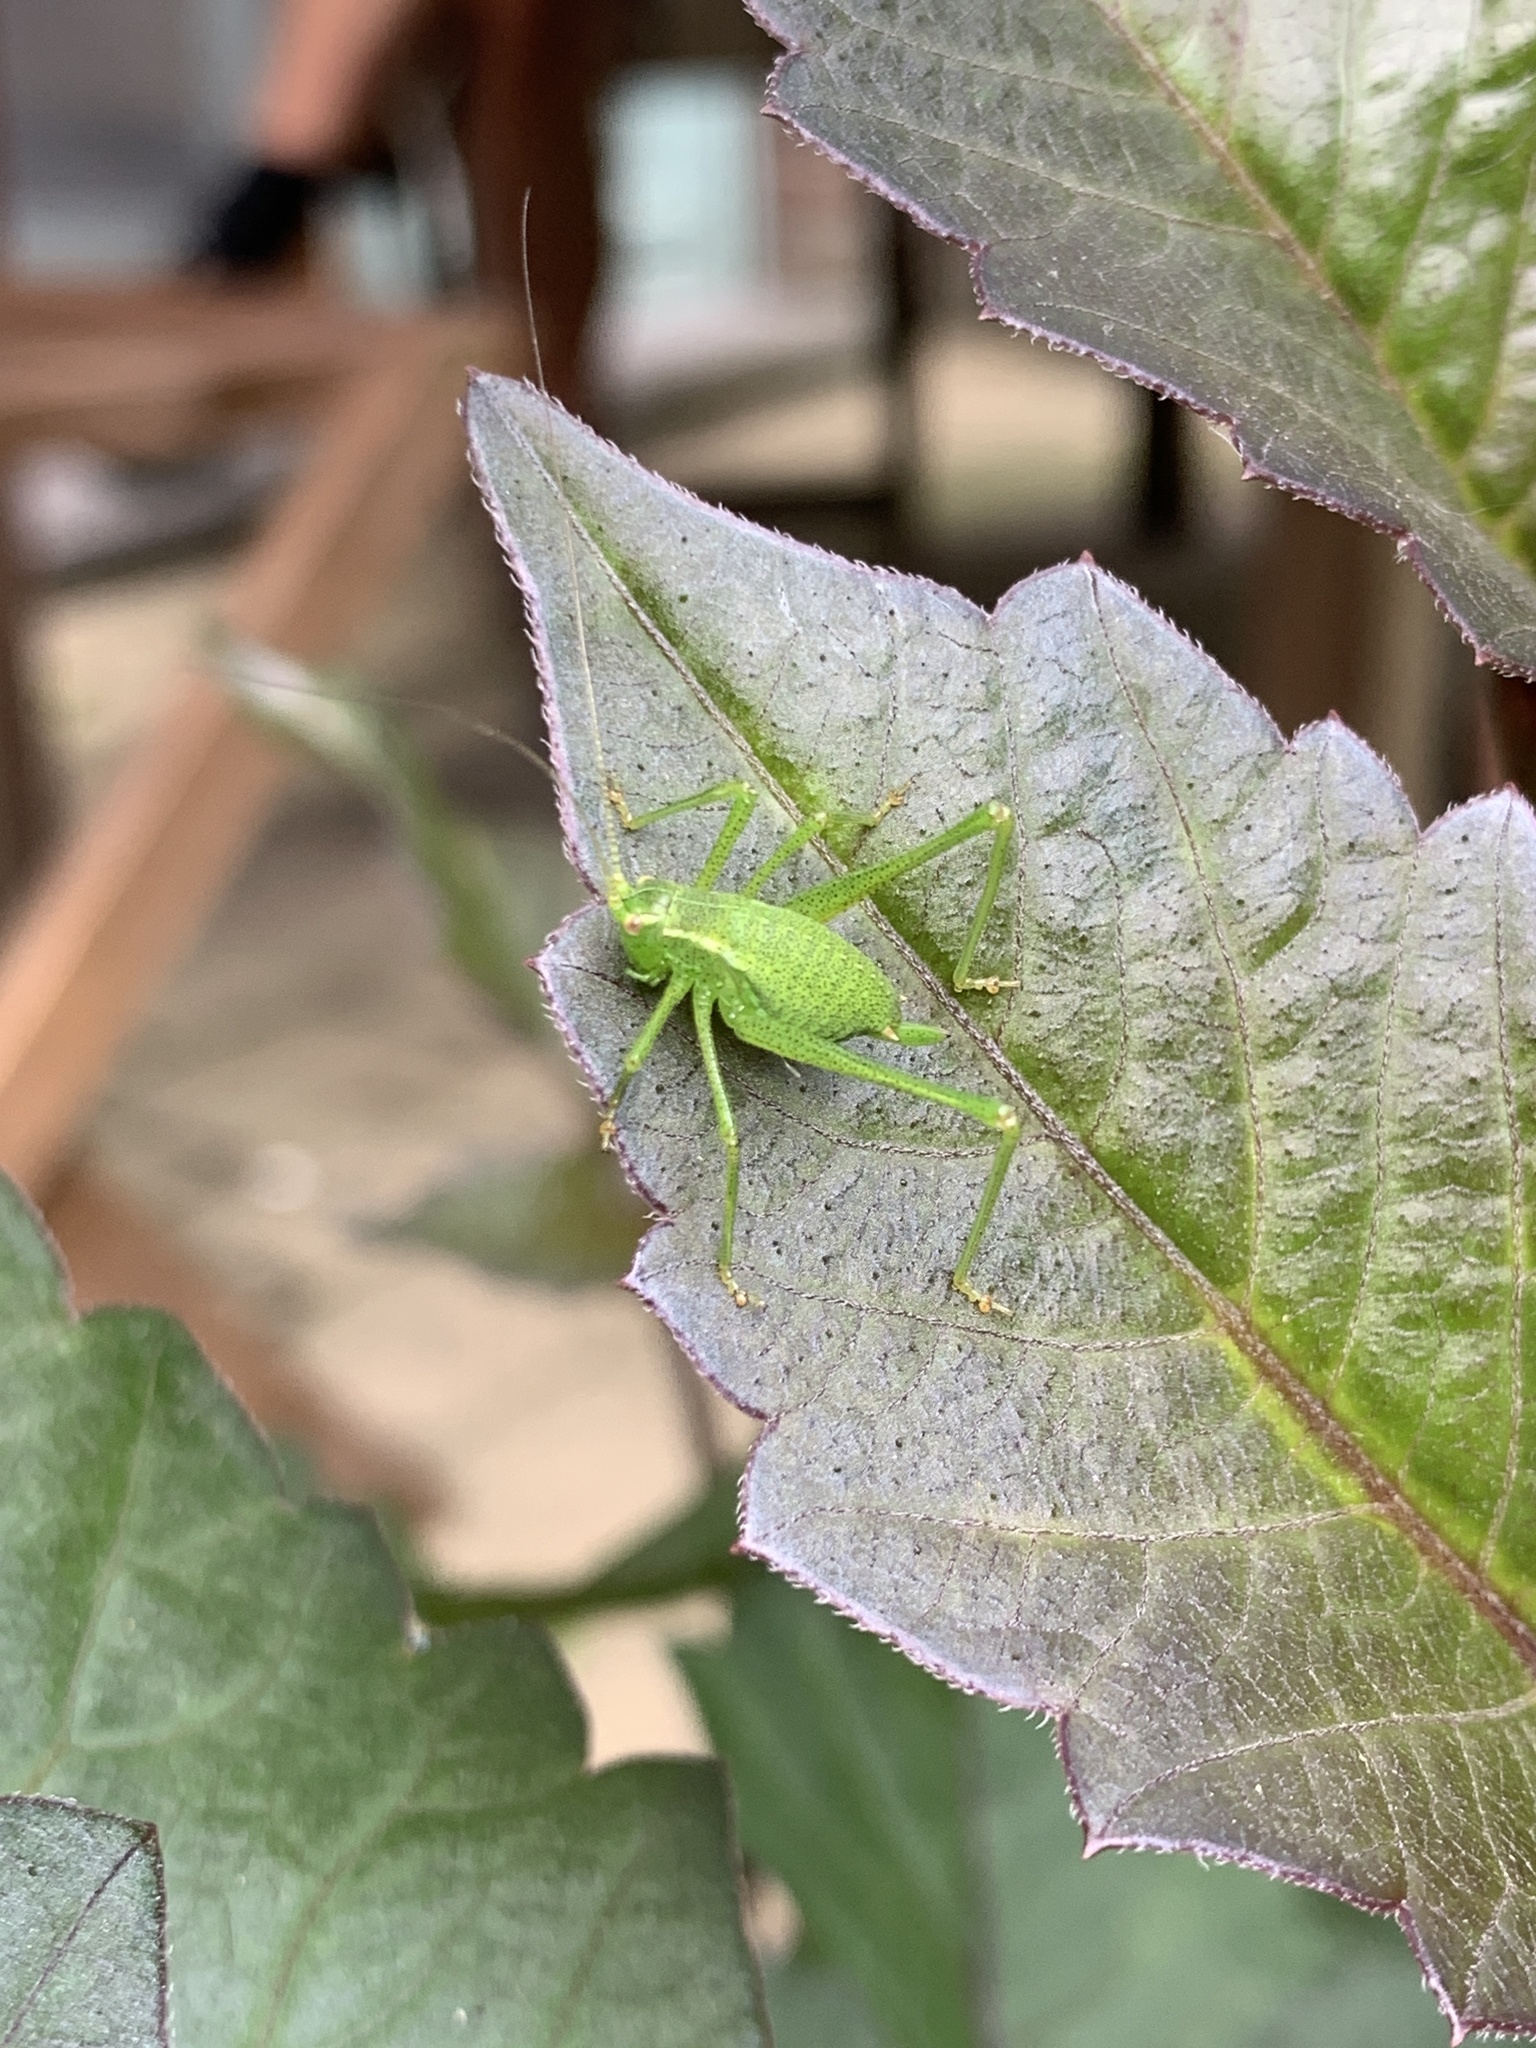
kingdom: Animalia
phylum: Arthropoda
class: Insecta
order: Orthoptera
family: Tettigoniidae
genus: Leptophyes
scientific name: Leptophyes punctatissima
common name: Speckled bush-cricket
